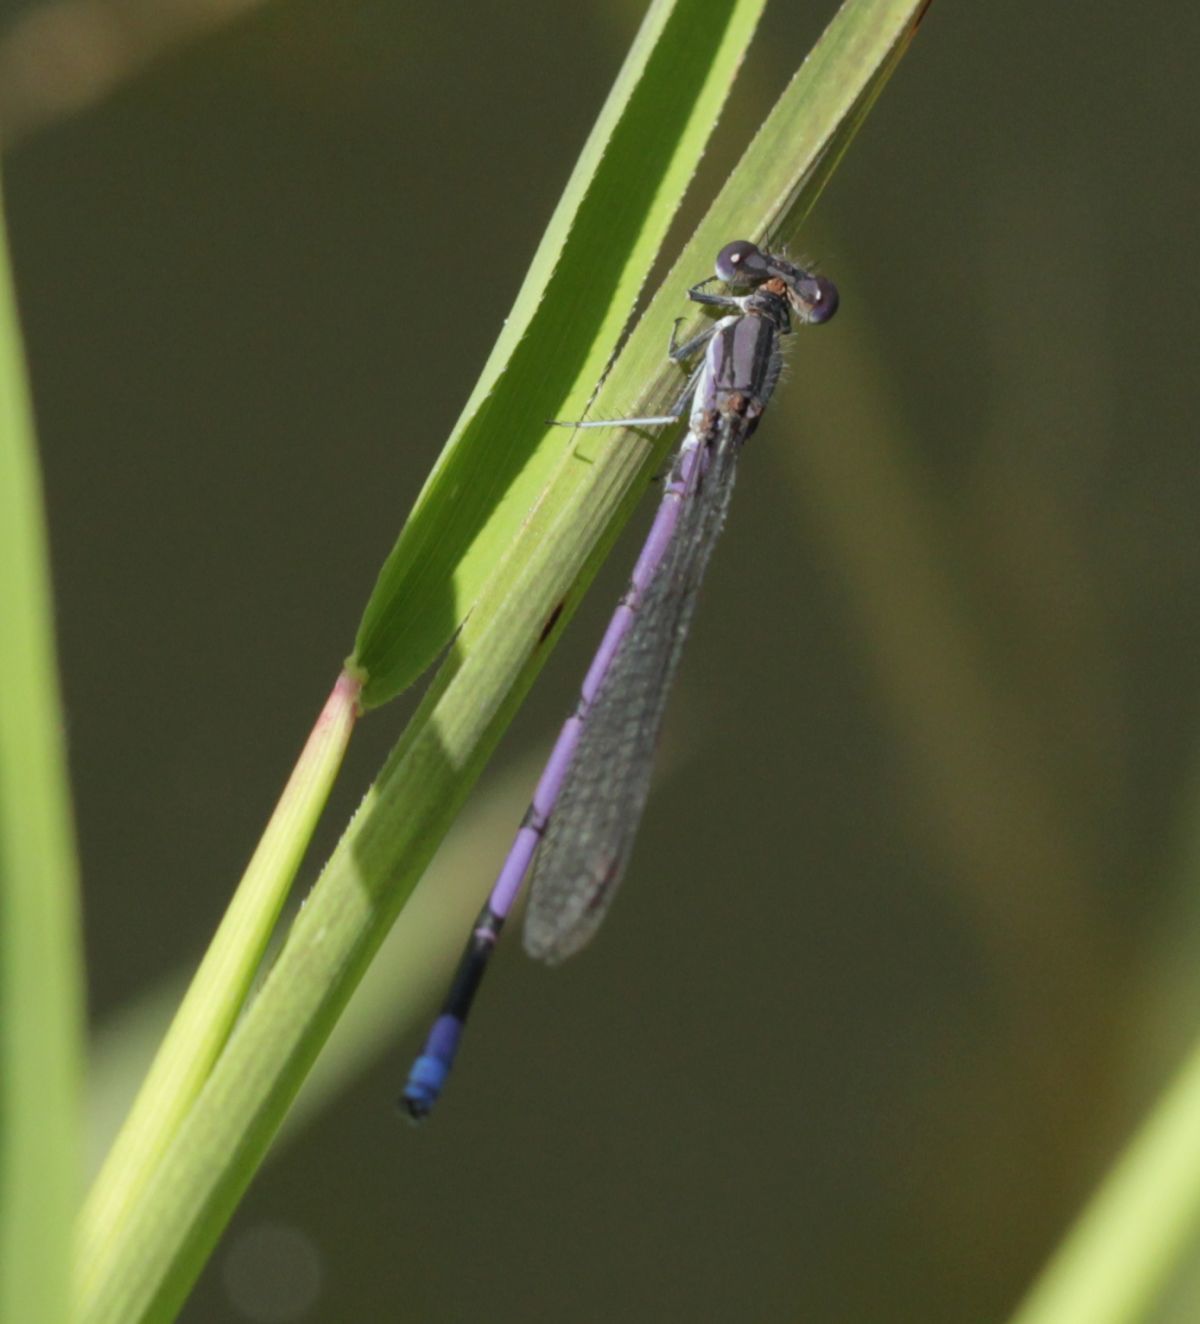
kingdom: Animalia
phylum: Arthropoda
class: Insecta
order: Odonata
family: Coenagrionidae
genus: Argia
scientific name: Argia fumipennis
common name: Variable dancer
